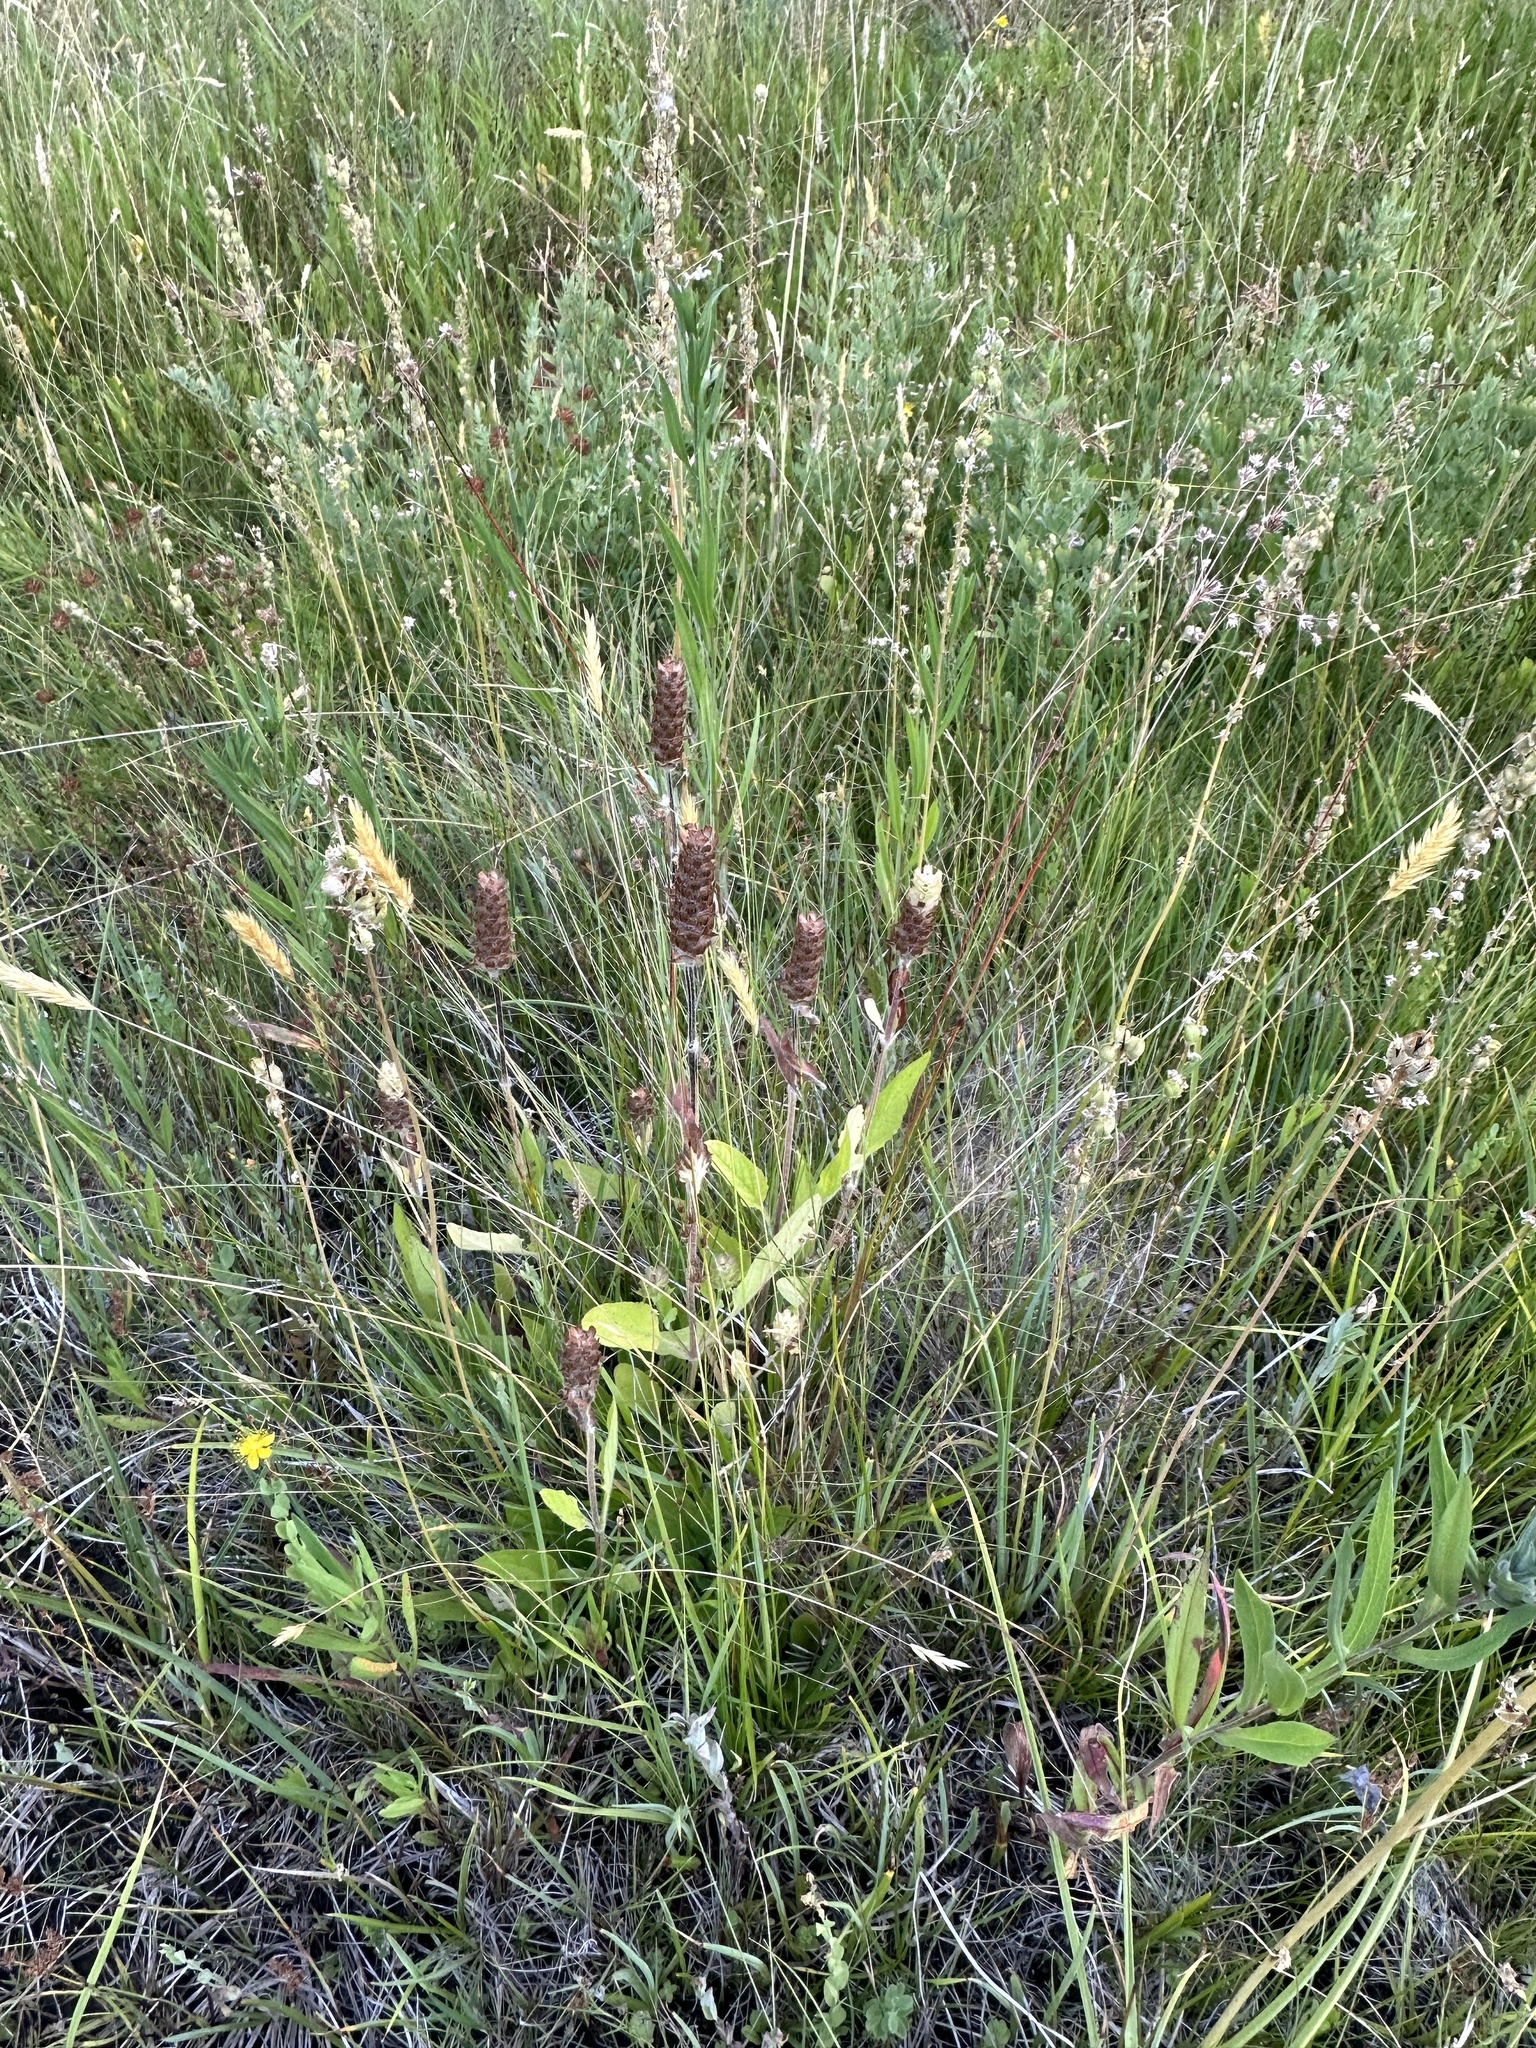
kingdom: Plantae
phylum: Tracheophyta
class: Magnoliopsida
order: Lamiales
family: Lamiaceae
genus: Prunella
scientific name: Prunella vulgaris
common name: Heal-all
